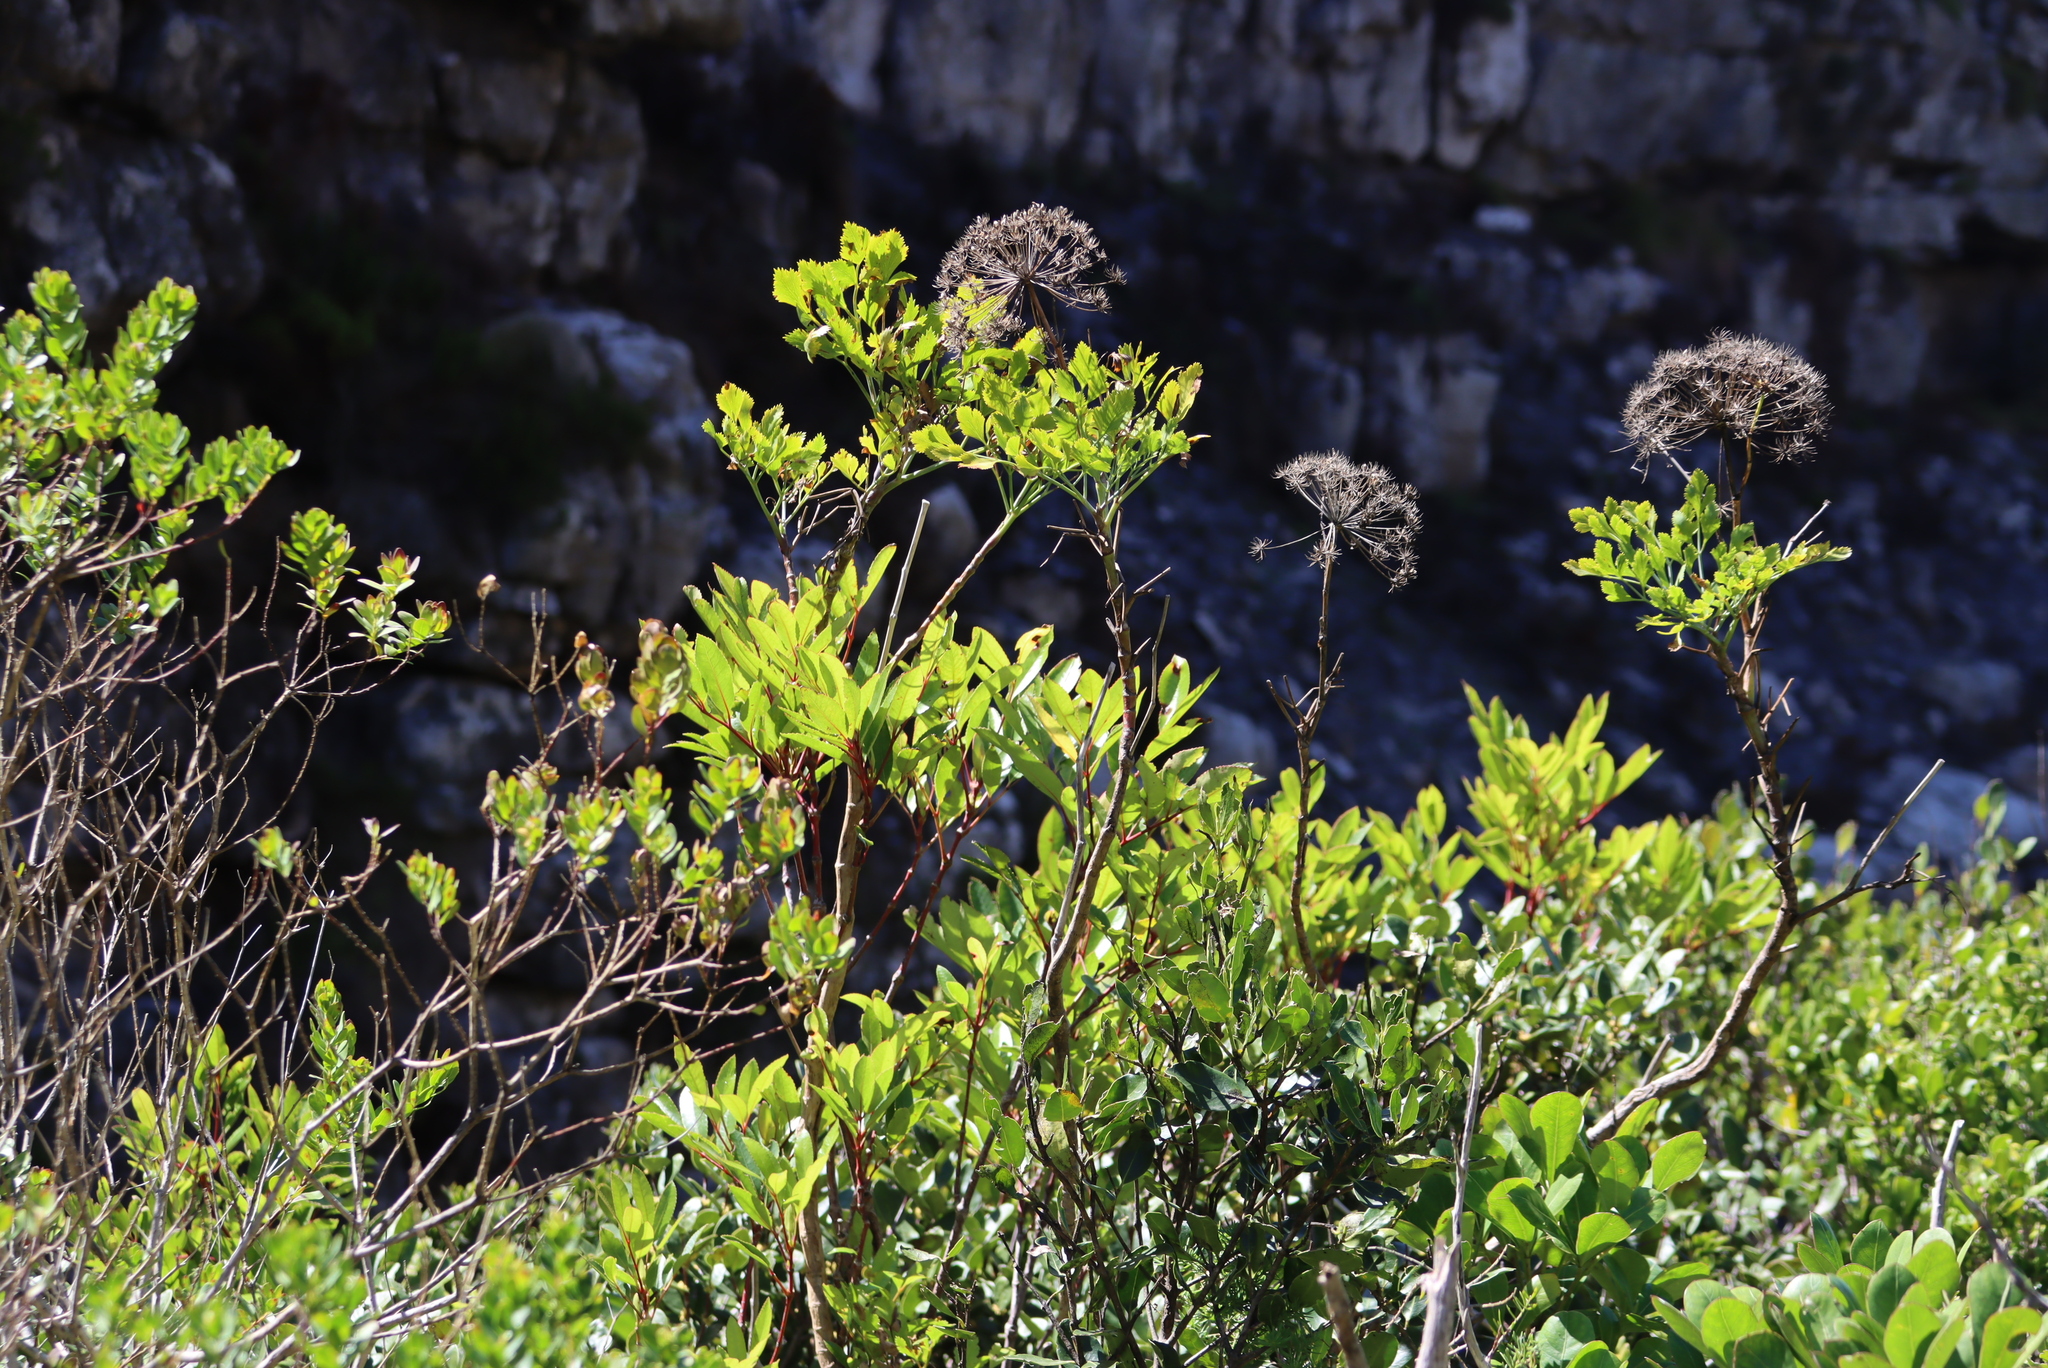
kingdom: Plantae
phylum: Tracheophyta
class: Magnoliopsida
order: Apiales
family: Apiaceae
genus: Notobubon
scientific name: Notobubon galbanum
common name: Blisterbush
